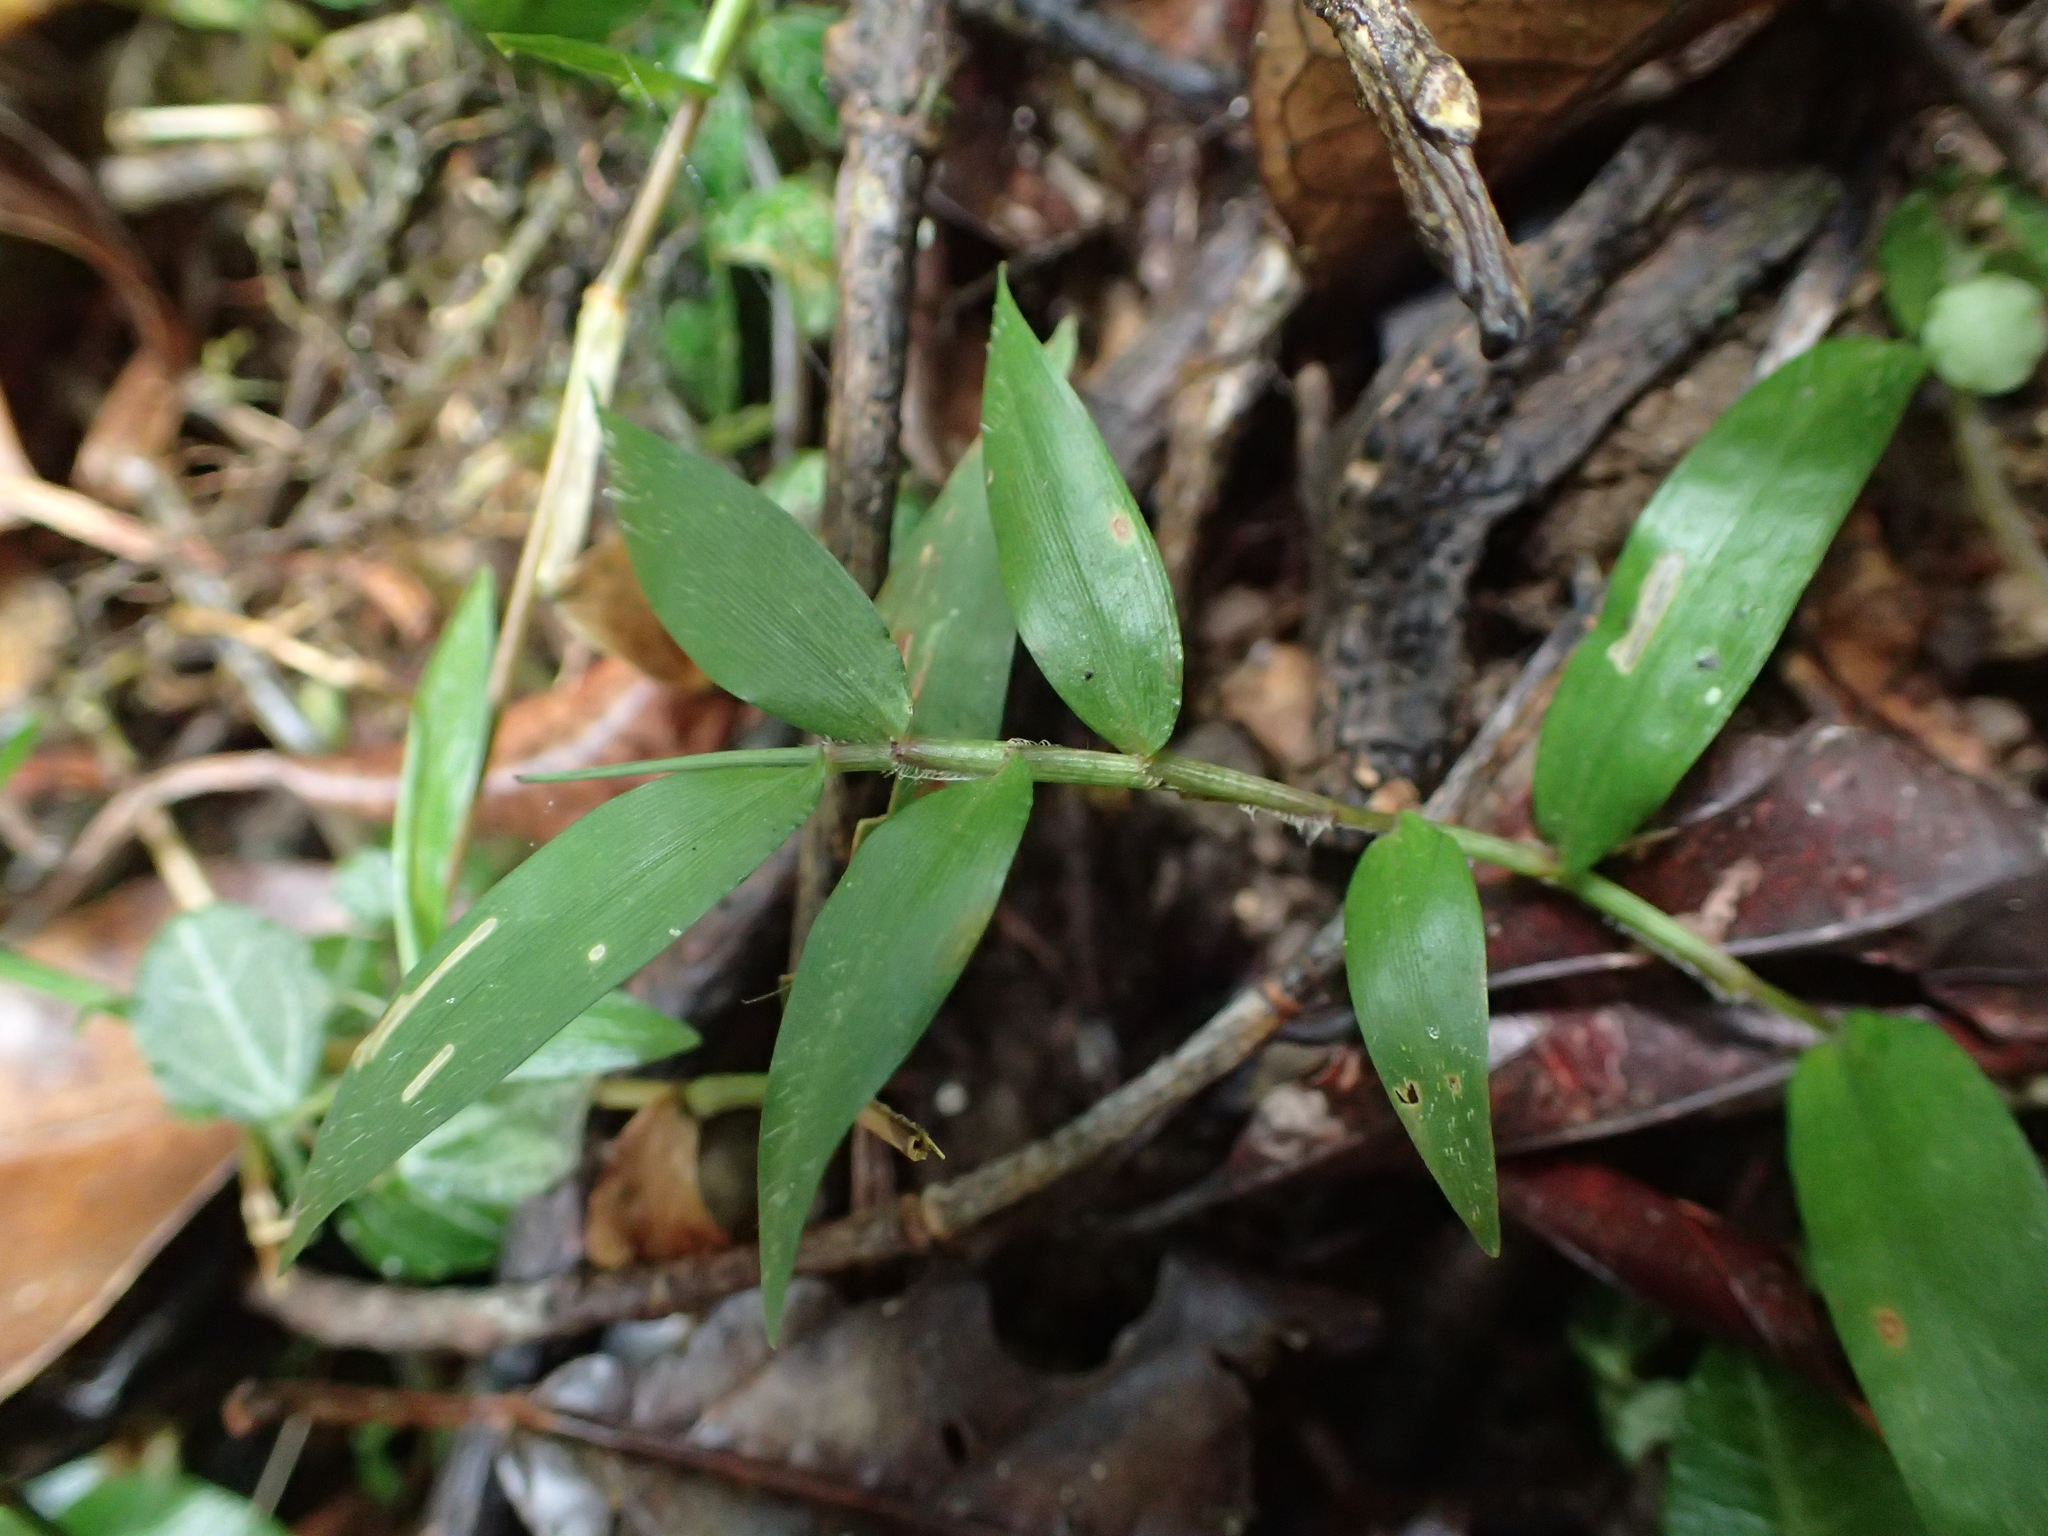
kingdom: Plantae
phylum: Tracheophyta
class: Liliopsida
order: Poales
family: Poaceae
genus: Oplismenus
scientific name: Oplismenus hirtellus
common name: Basketgrass
